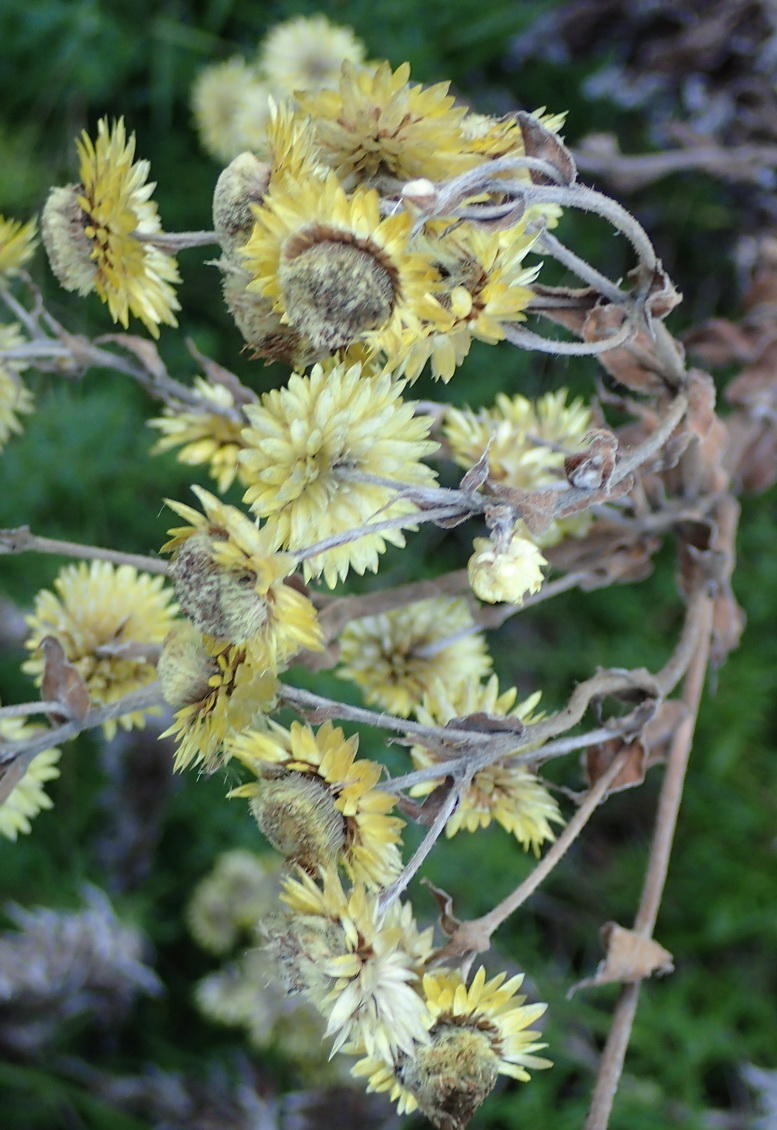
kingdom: Plantae
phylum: Tracheophyta
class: Magnoliopsida
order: Asterales
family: Asteraceae
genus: Helichrysum
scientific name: Helichrysum foetidum
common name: Stinking everlasting
